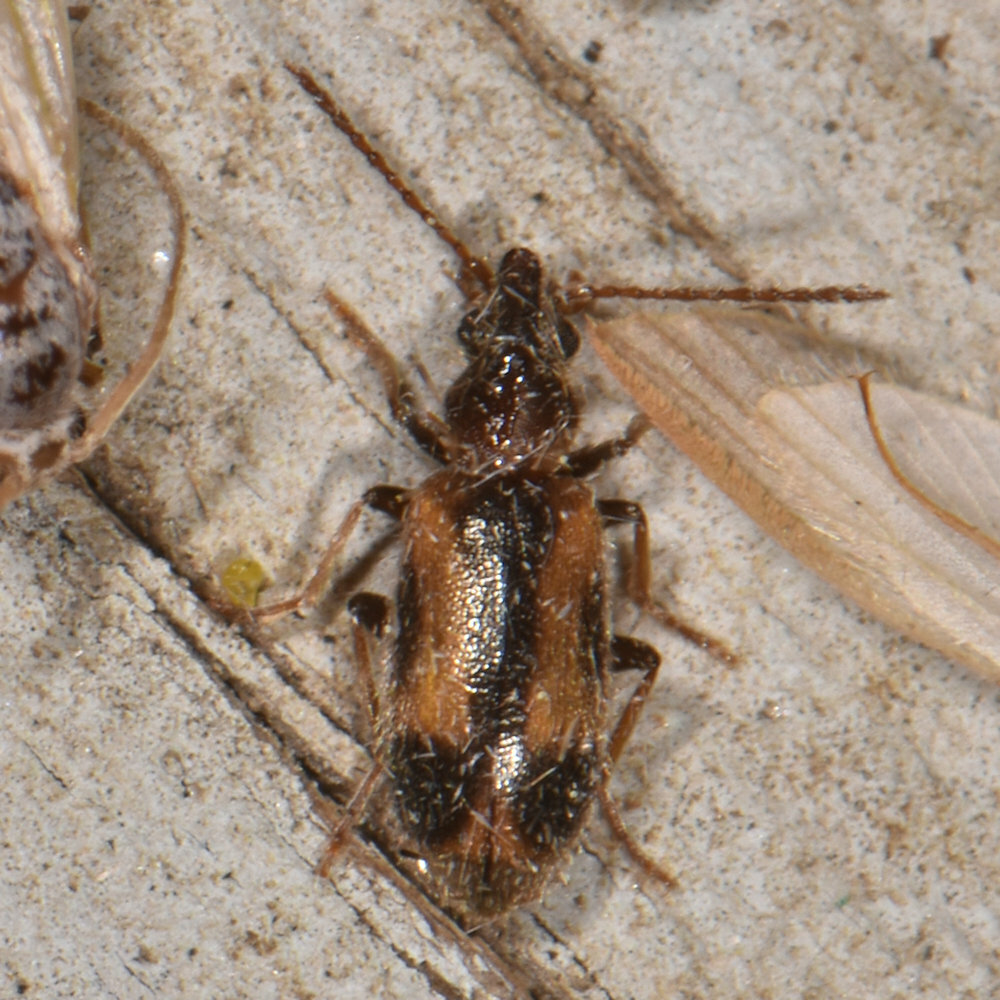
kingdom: Animalia
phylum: Arthropoda
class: Insecta
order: Coleoptera
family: Anthicidae
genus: Notoxus
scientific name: Notoxus anchora
